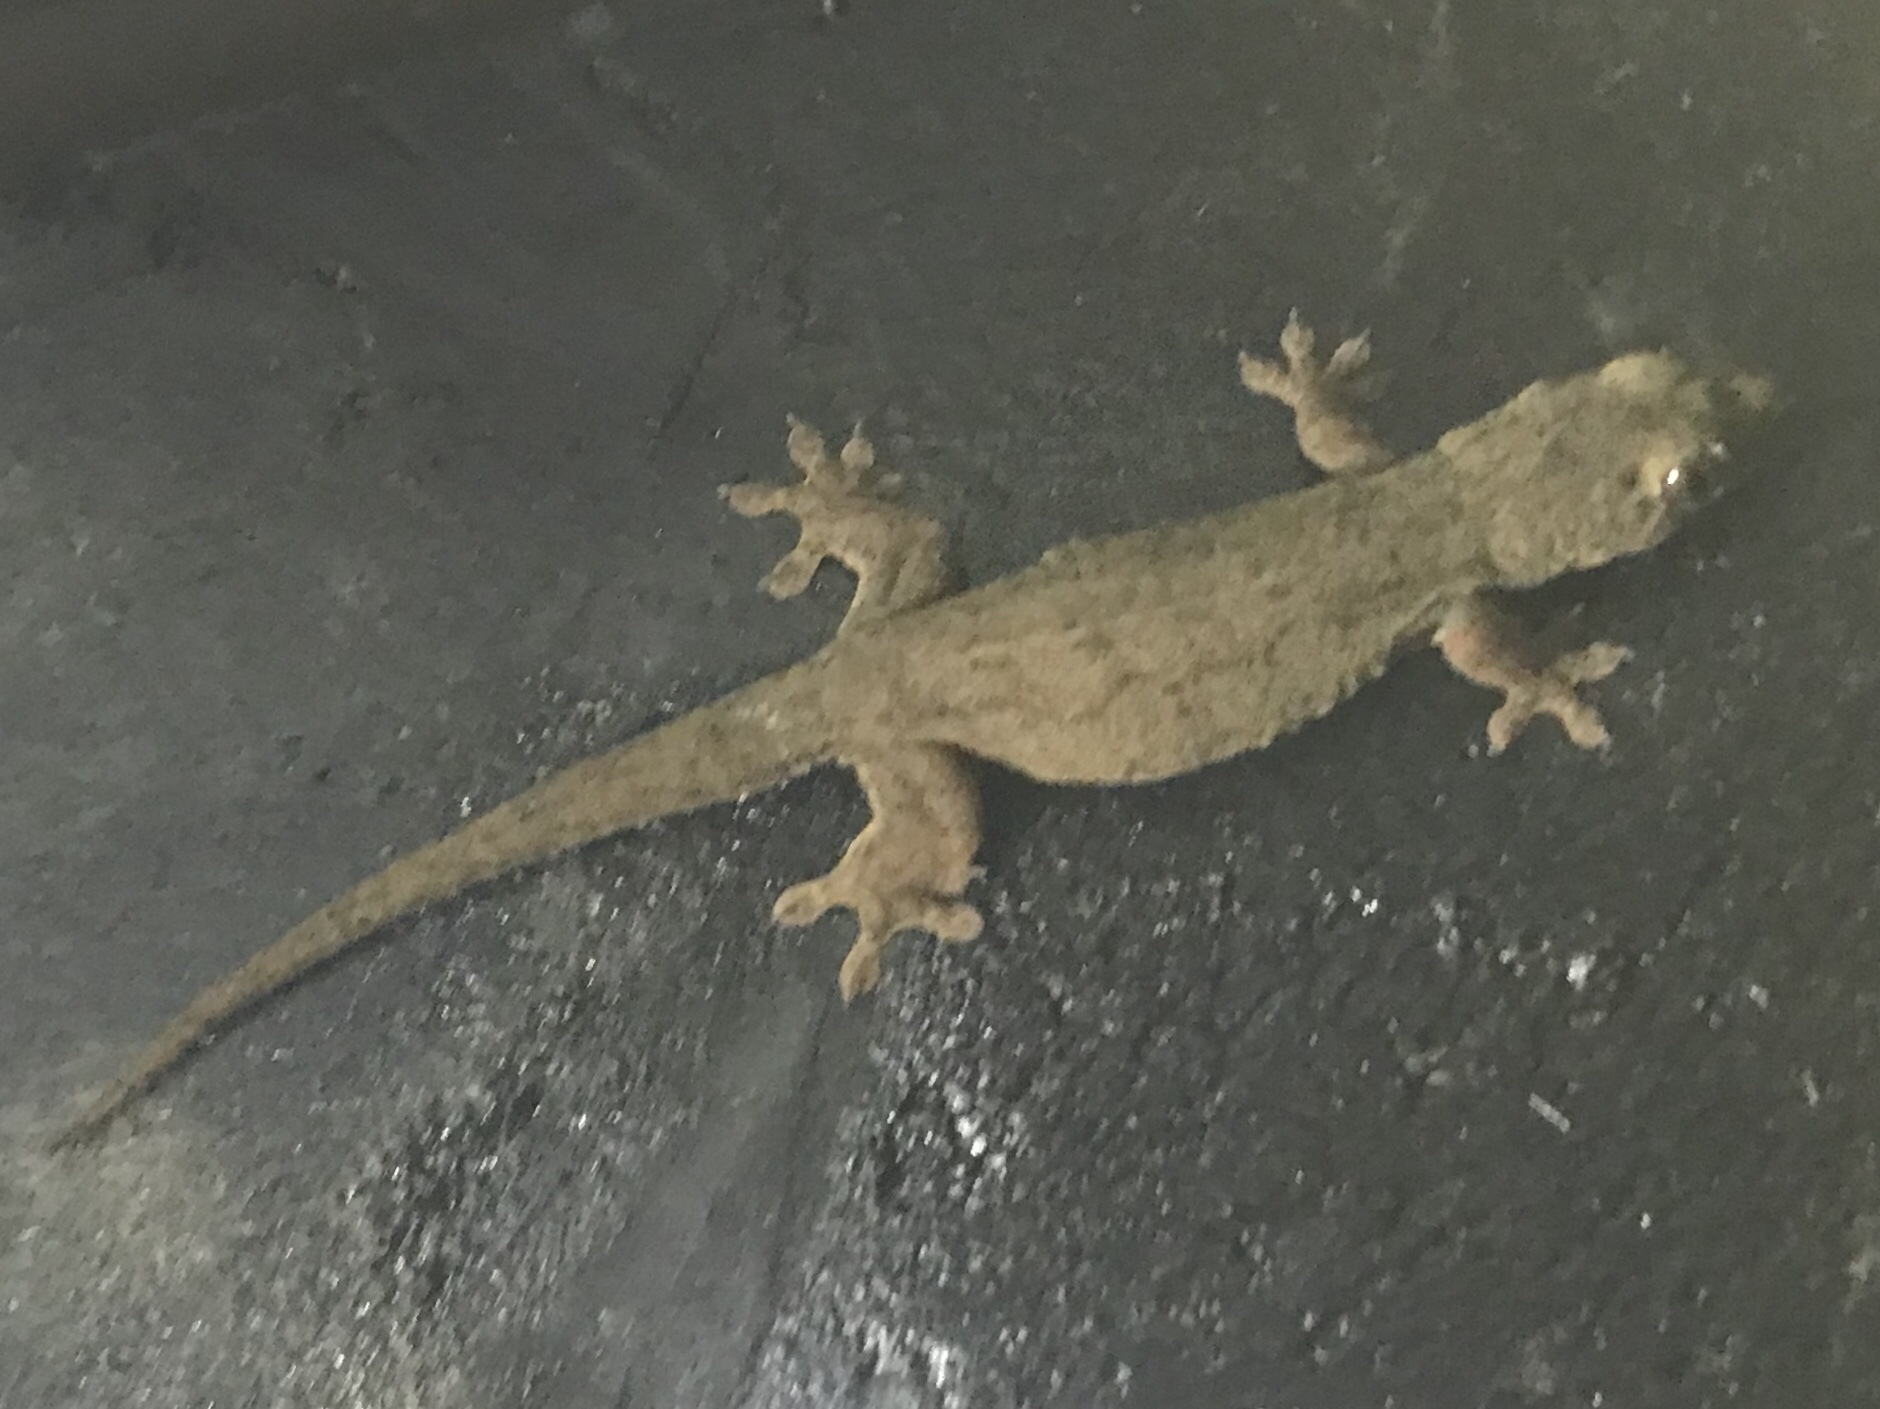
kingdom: Animalia
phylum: Chordata
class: Squamata
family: Gekkonidae
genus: Gehyra
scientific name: Gehyra oceanica
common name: Pacific dtella
